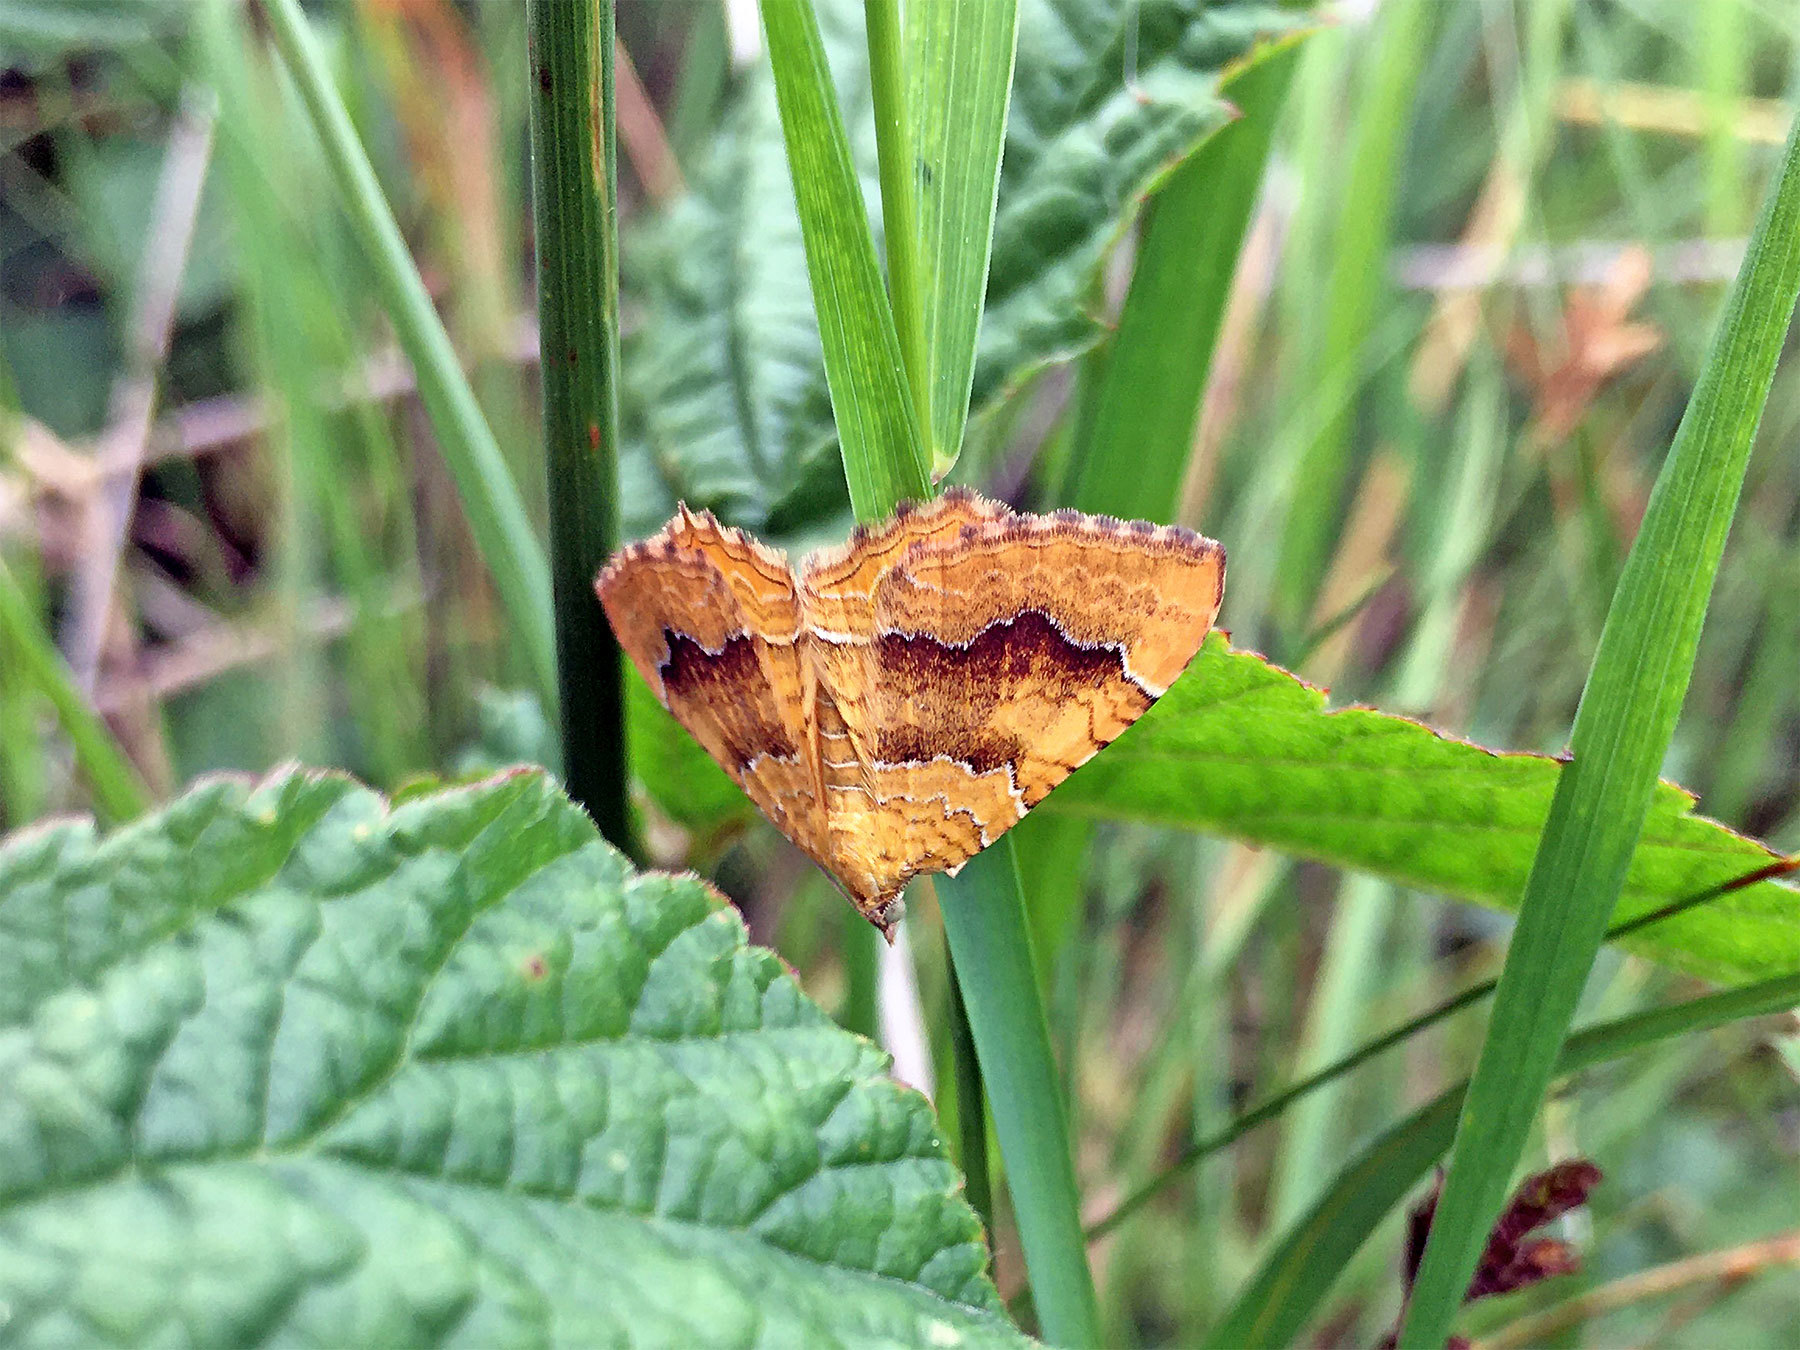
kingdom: Animalia
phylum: Arthropoda
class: Insecta
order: Lepidoptera
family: Geometridae
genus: Camptogramma
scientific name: Camptogramma bilineata
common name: Yellow shell
